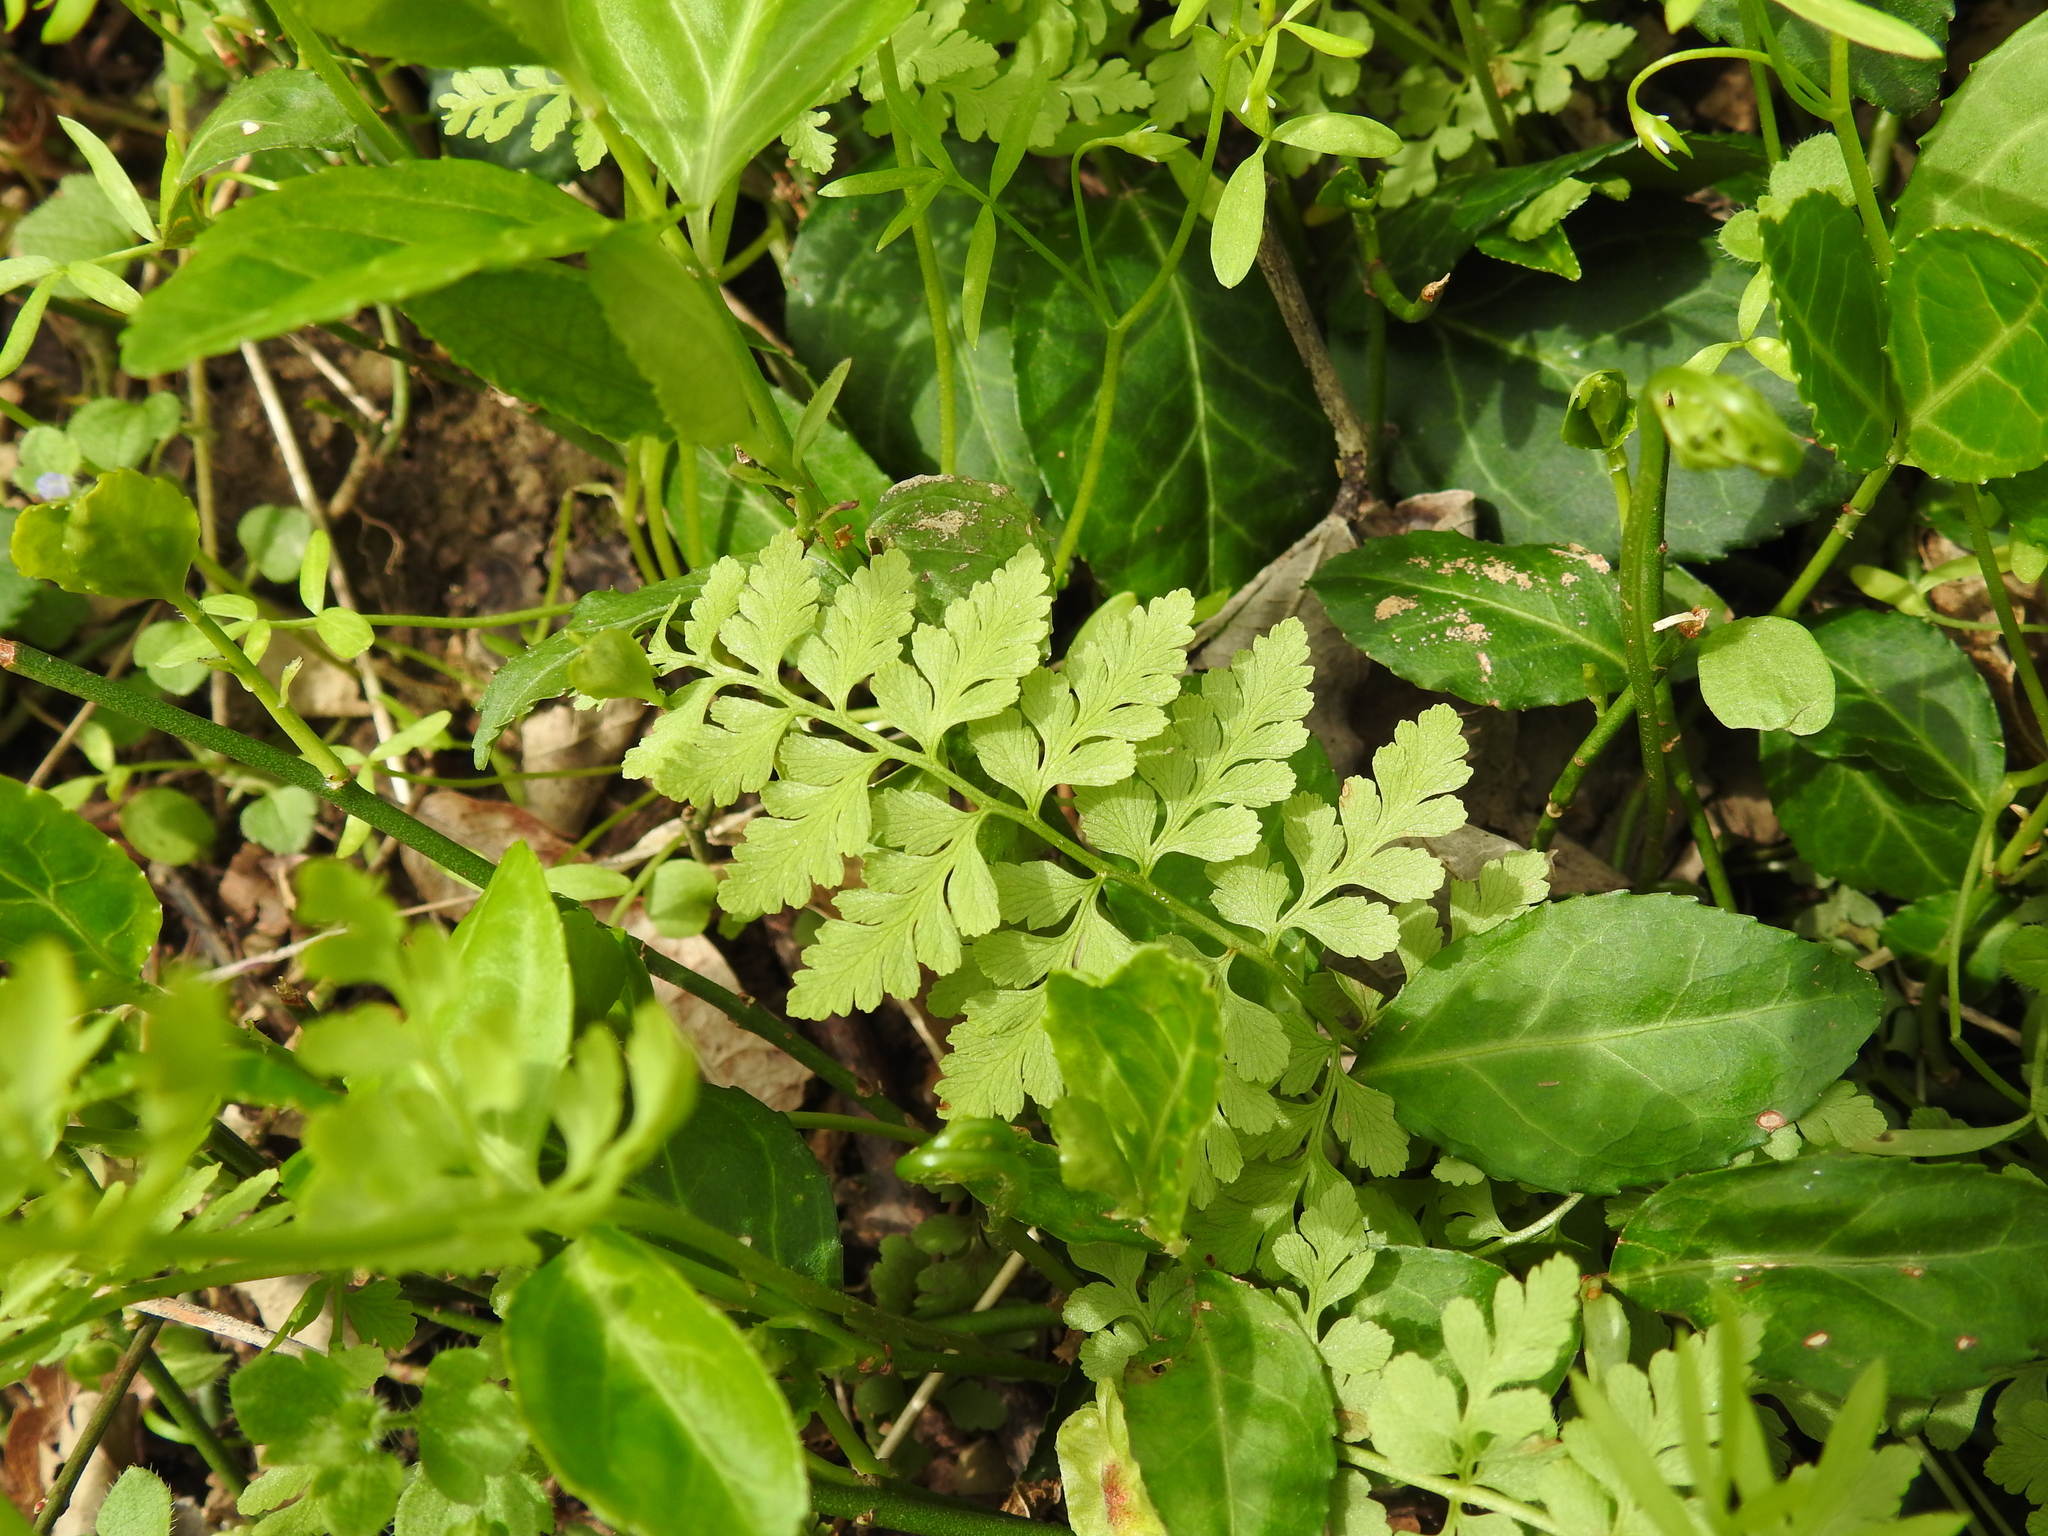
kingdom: Plantae
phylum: Tracheophyta
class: Polypodiopsida
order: Polypodiales
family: Cystopteridaceae
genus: Cystopteris
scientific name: Cystopteris protrusa
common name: Lowland brittle fern
